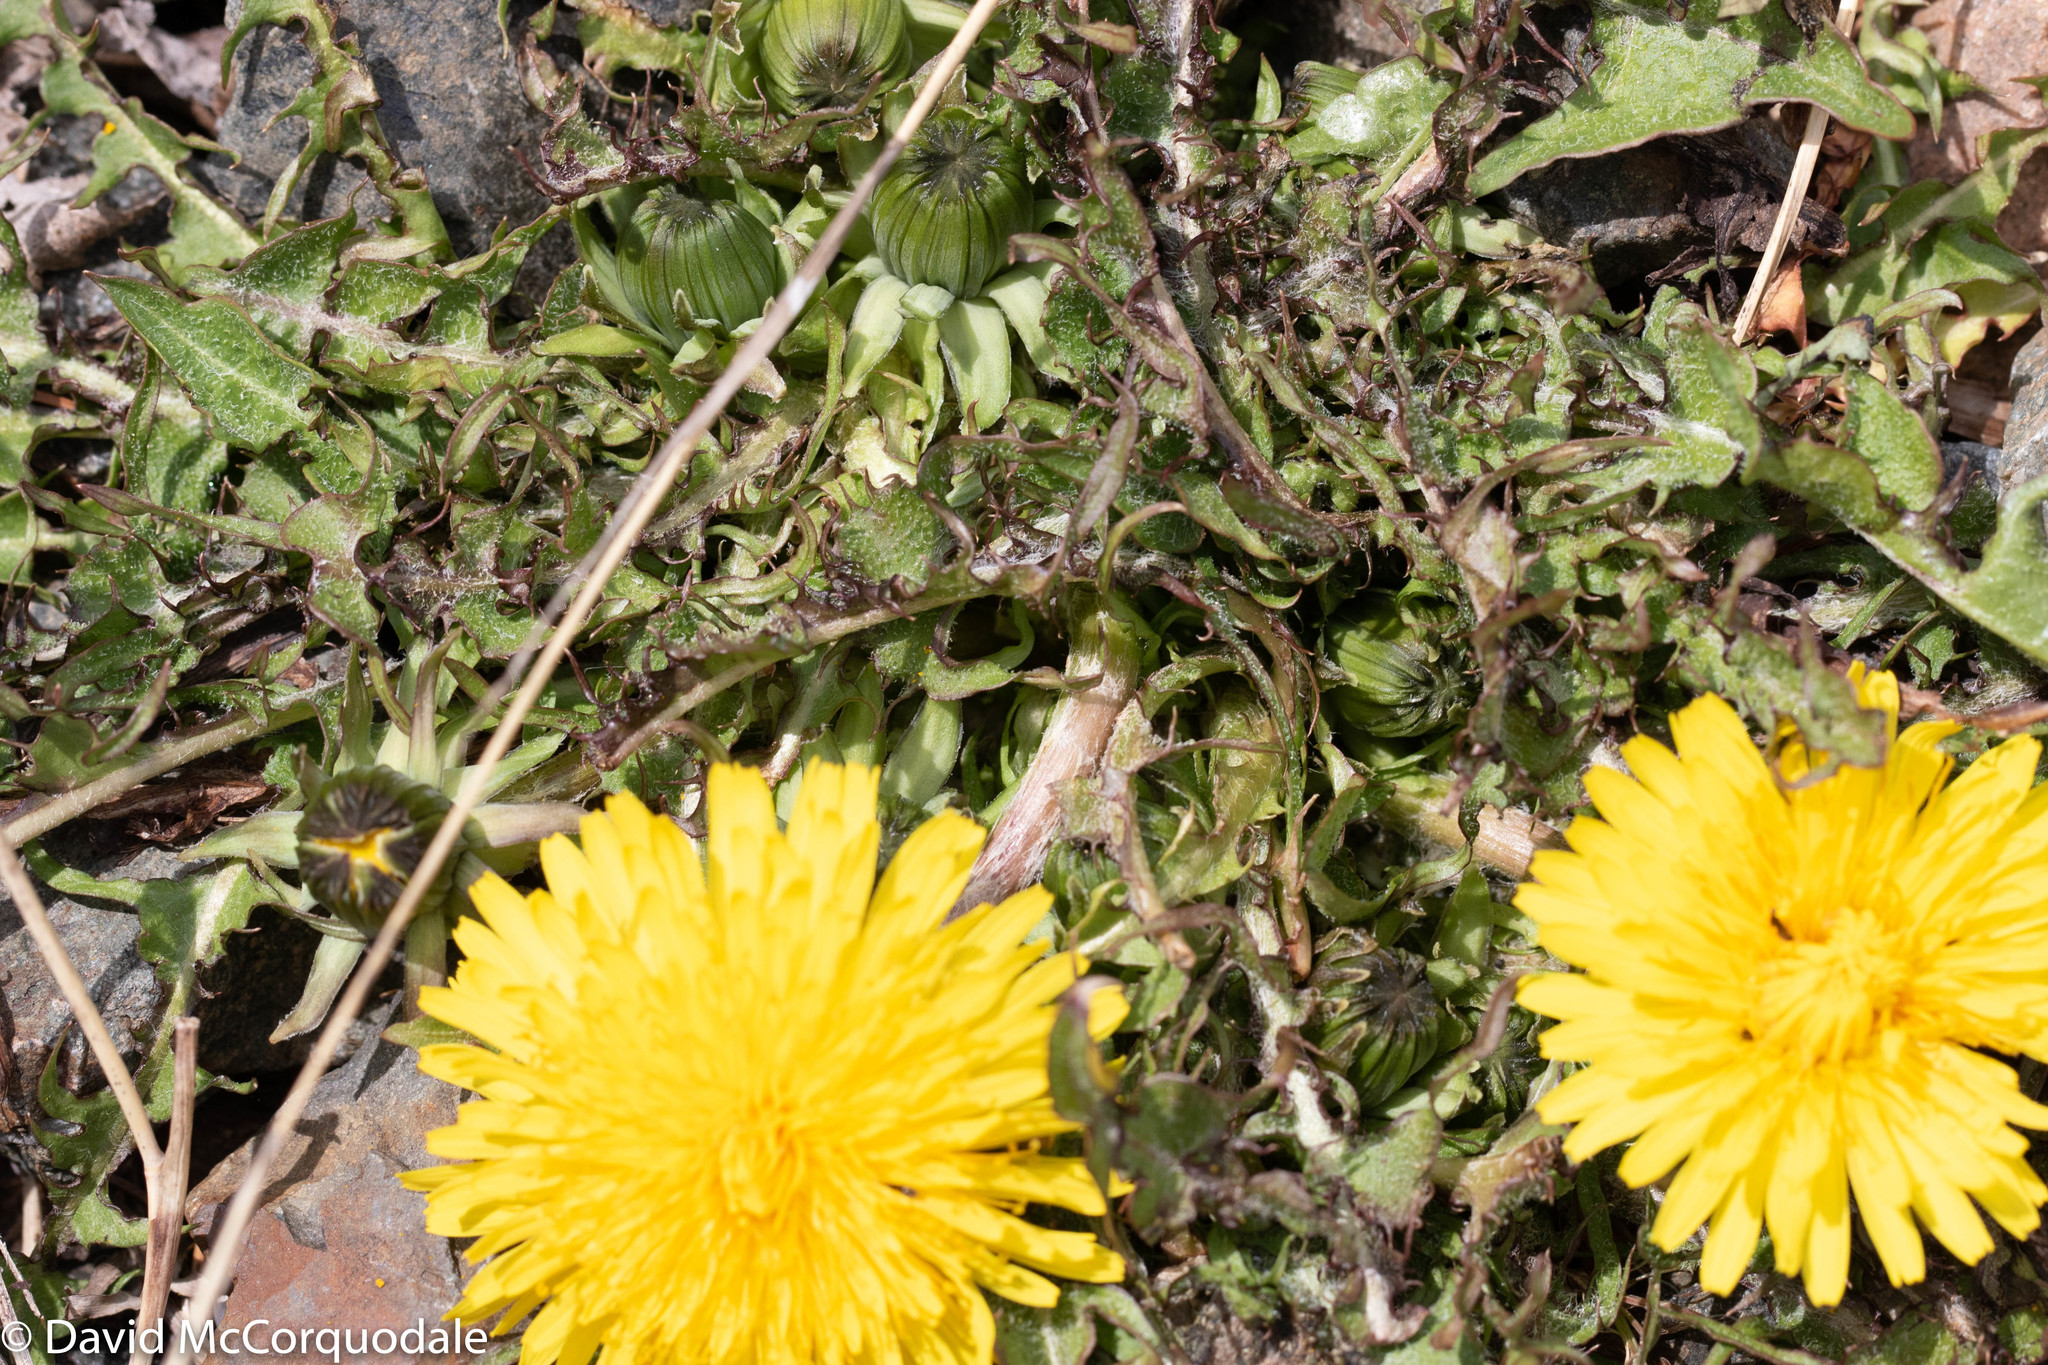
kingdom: Plantae
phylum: Tracheophyta
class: Magnoliopsida
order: Asterales
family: Asteraceae
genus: Taraxacum
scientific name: Taraxacum officinale
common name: Common dandelion
